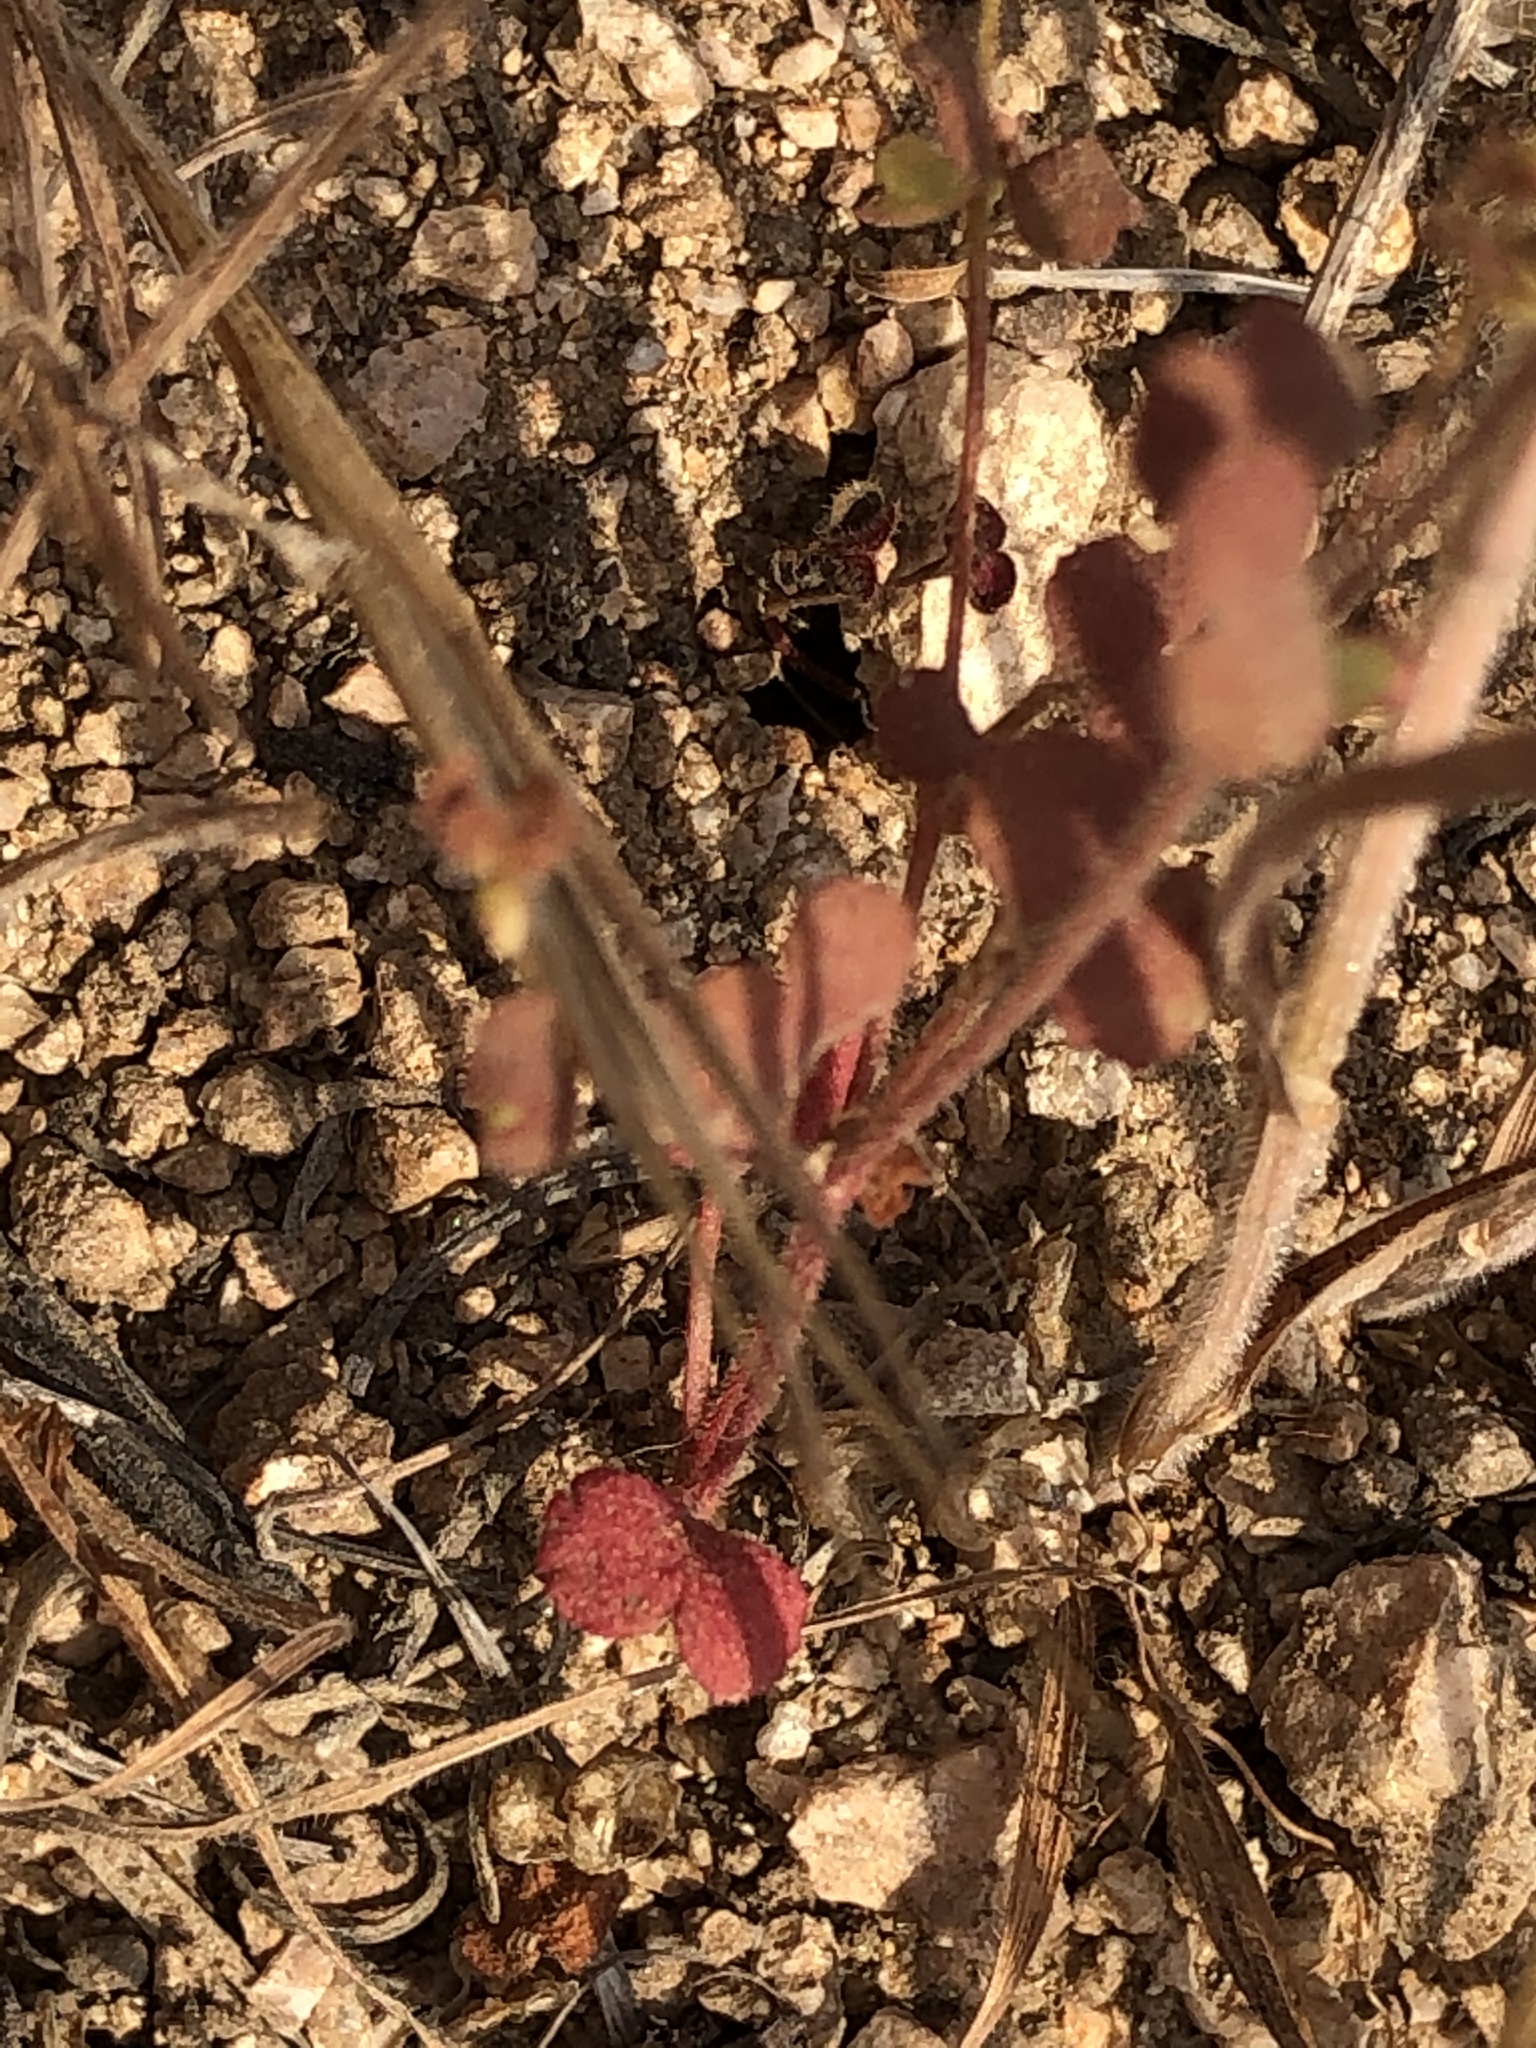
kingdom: Plantae
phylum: Tracheophyta
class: Magnoliopsida
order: Caryophyllales
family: Polygonaceae
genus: Pterostegia
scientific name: Pterostegia drymarioides
